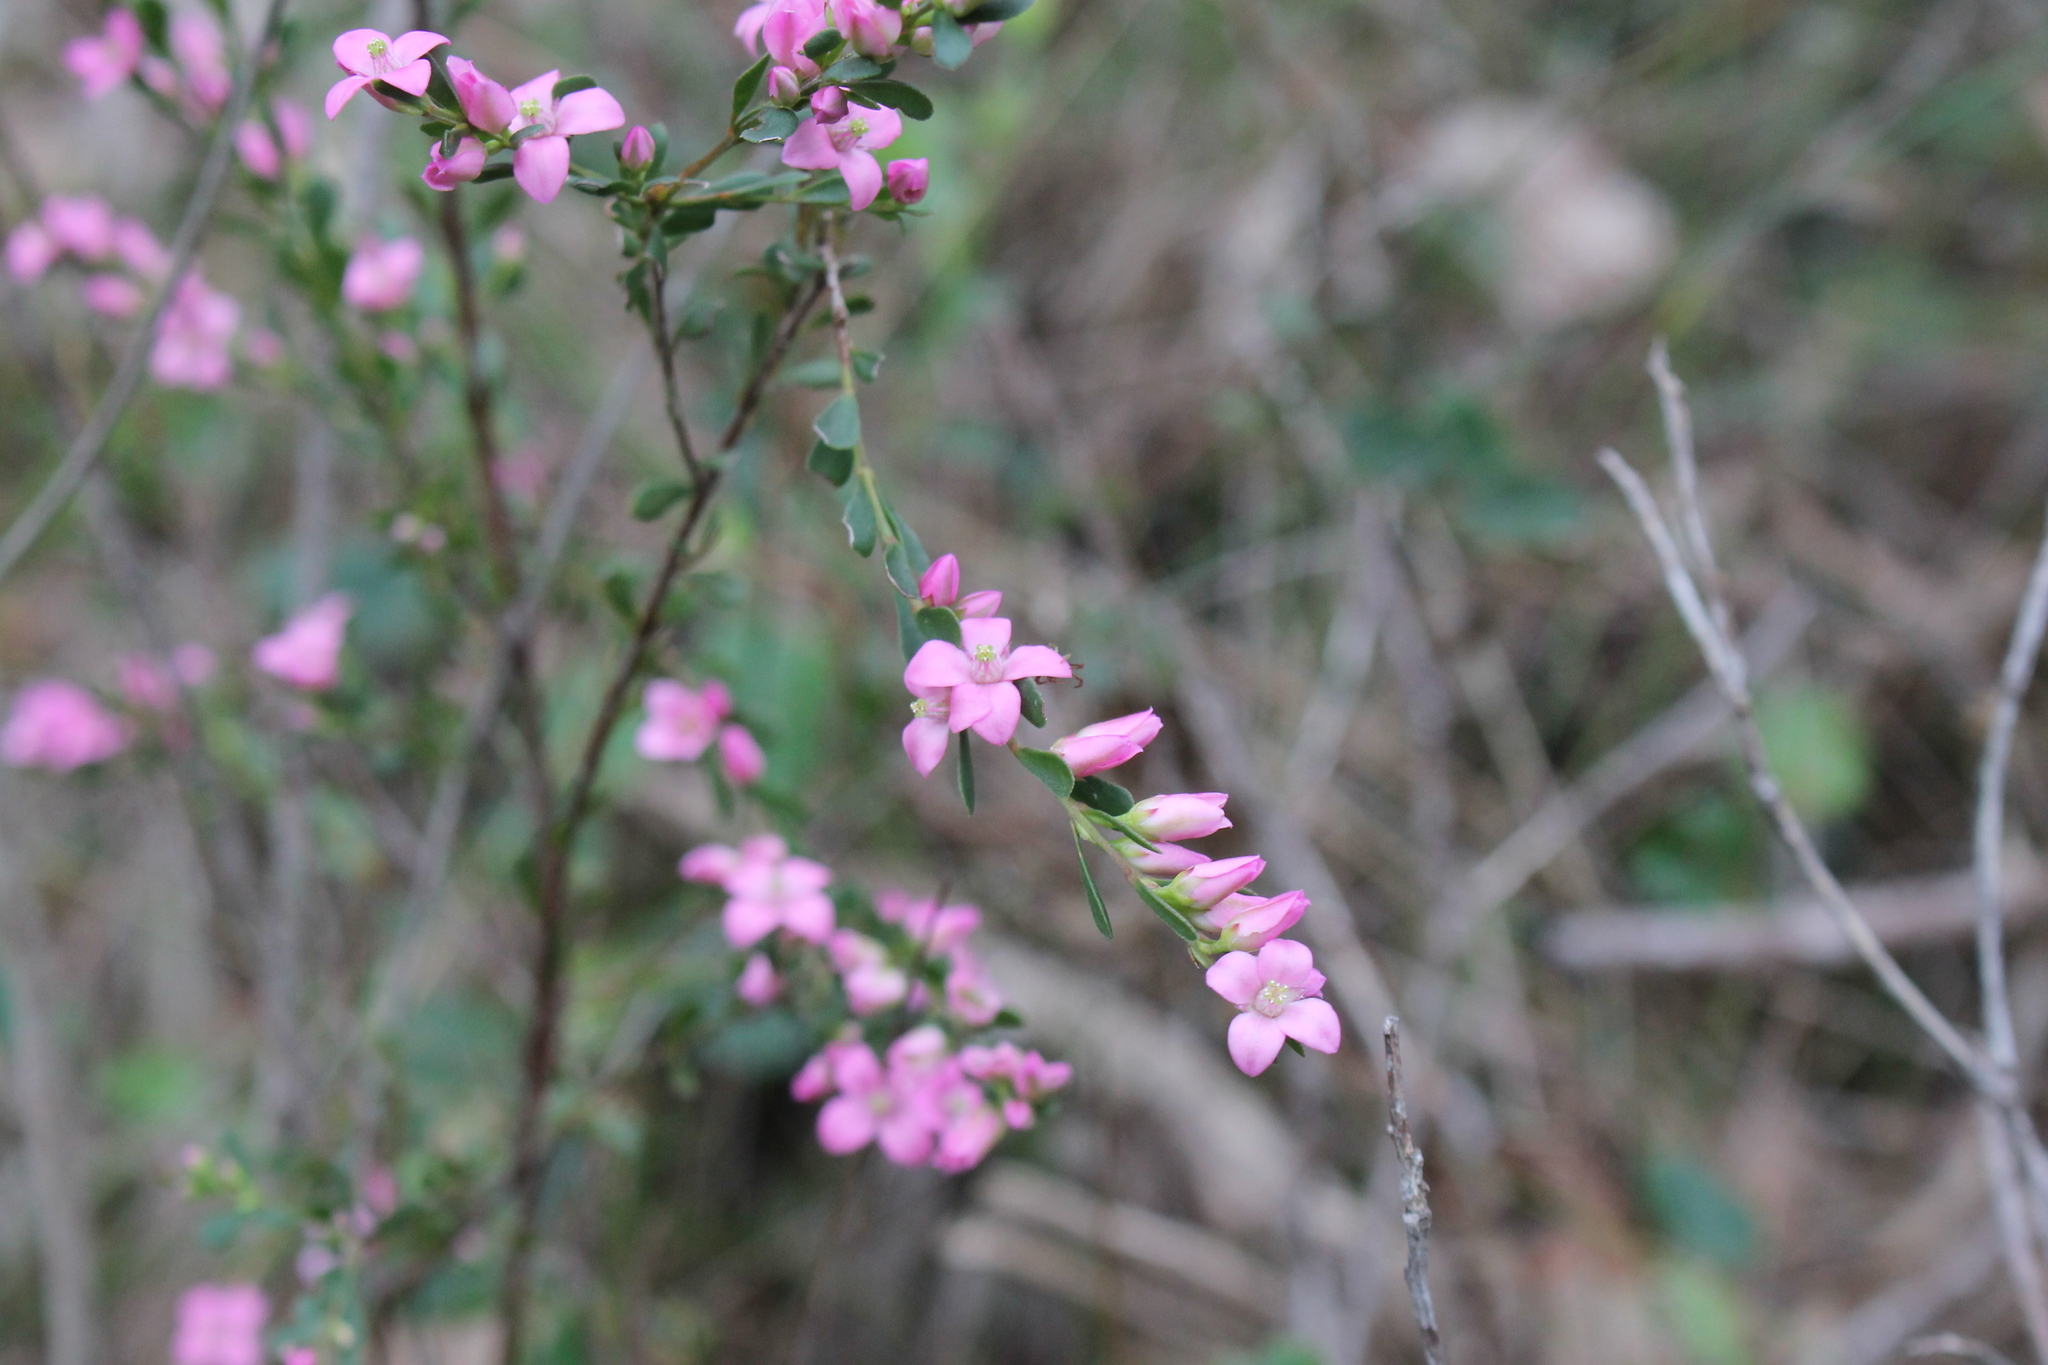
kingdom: Plantae
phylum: Tracheophyta
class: Magnoliopsida
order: Sapindales
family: Rutaceae
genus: Boronia
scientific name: Boronia crenulata
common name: Aniseed boronia
